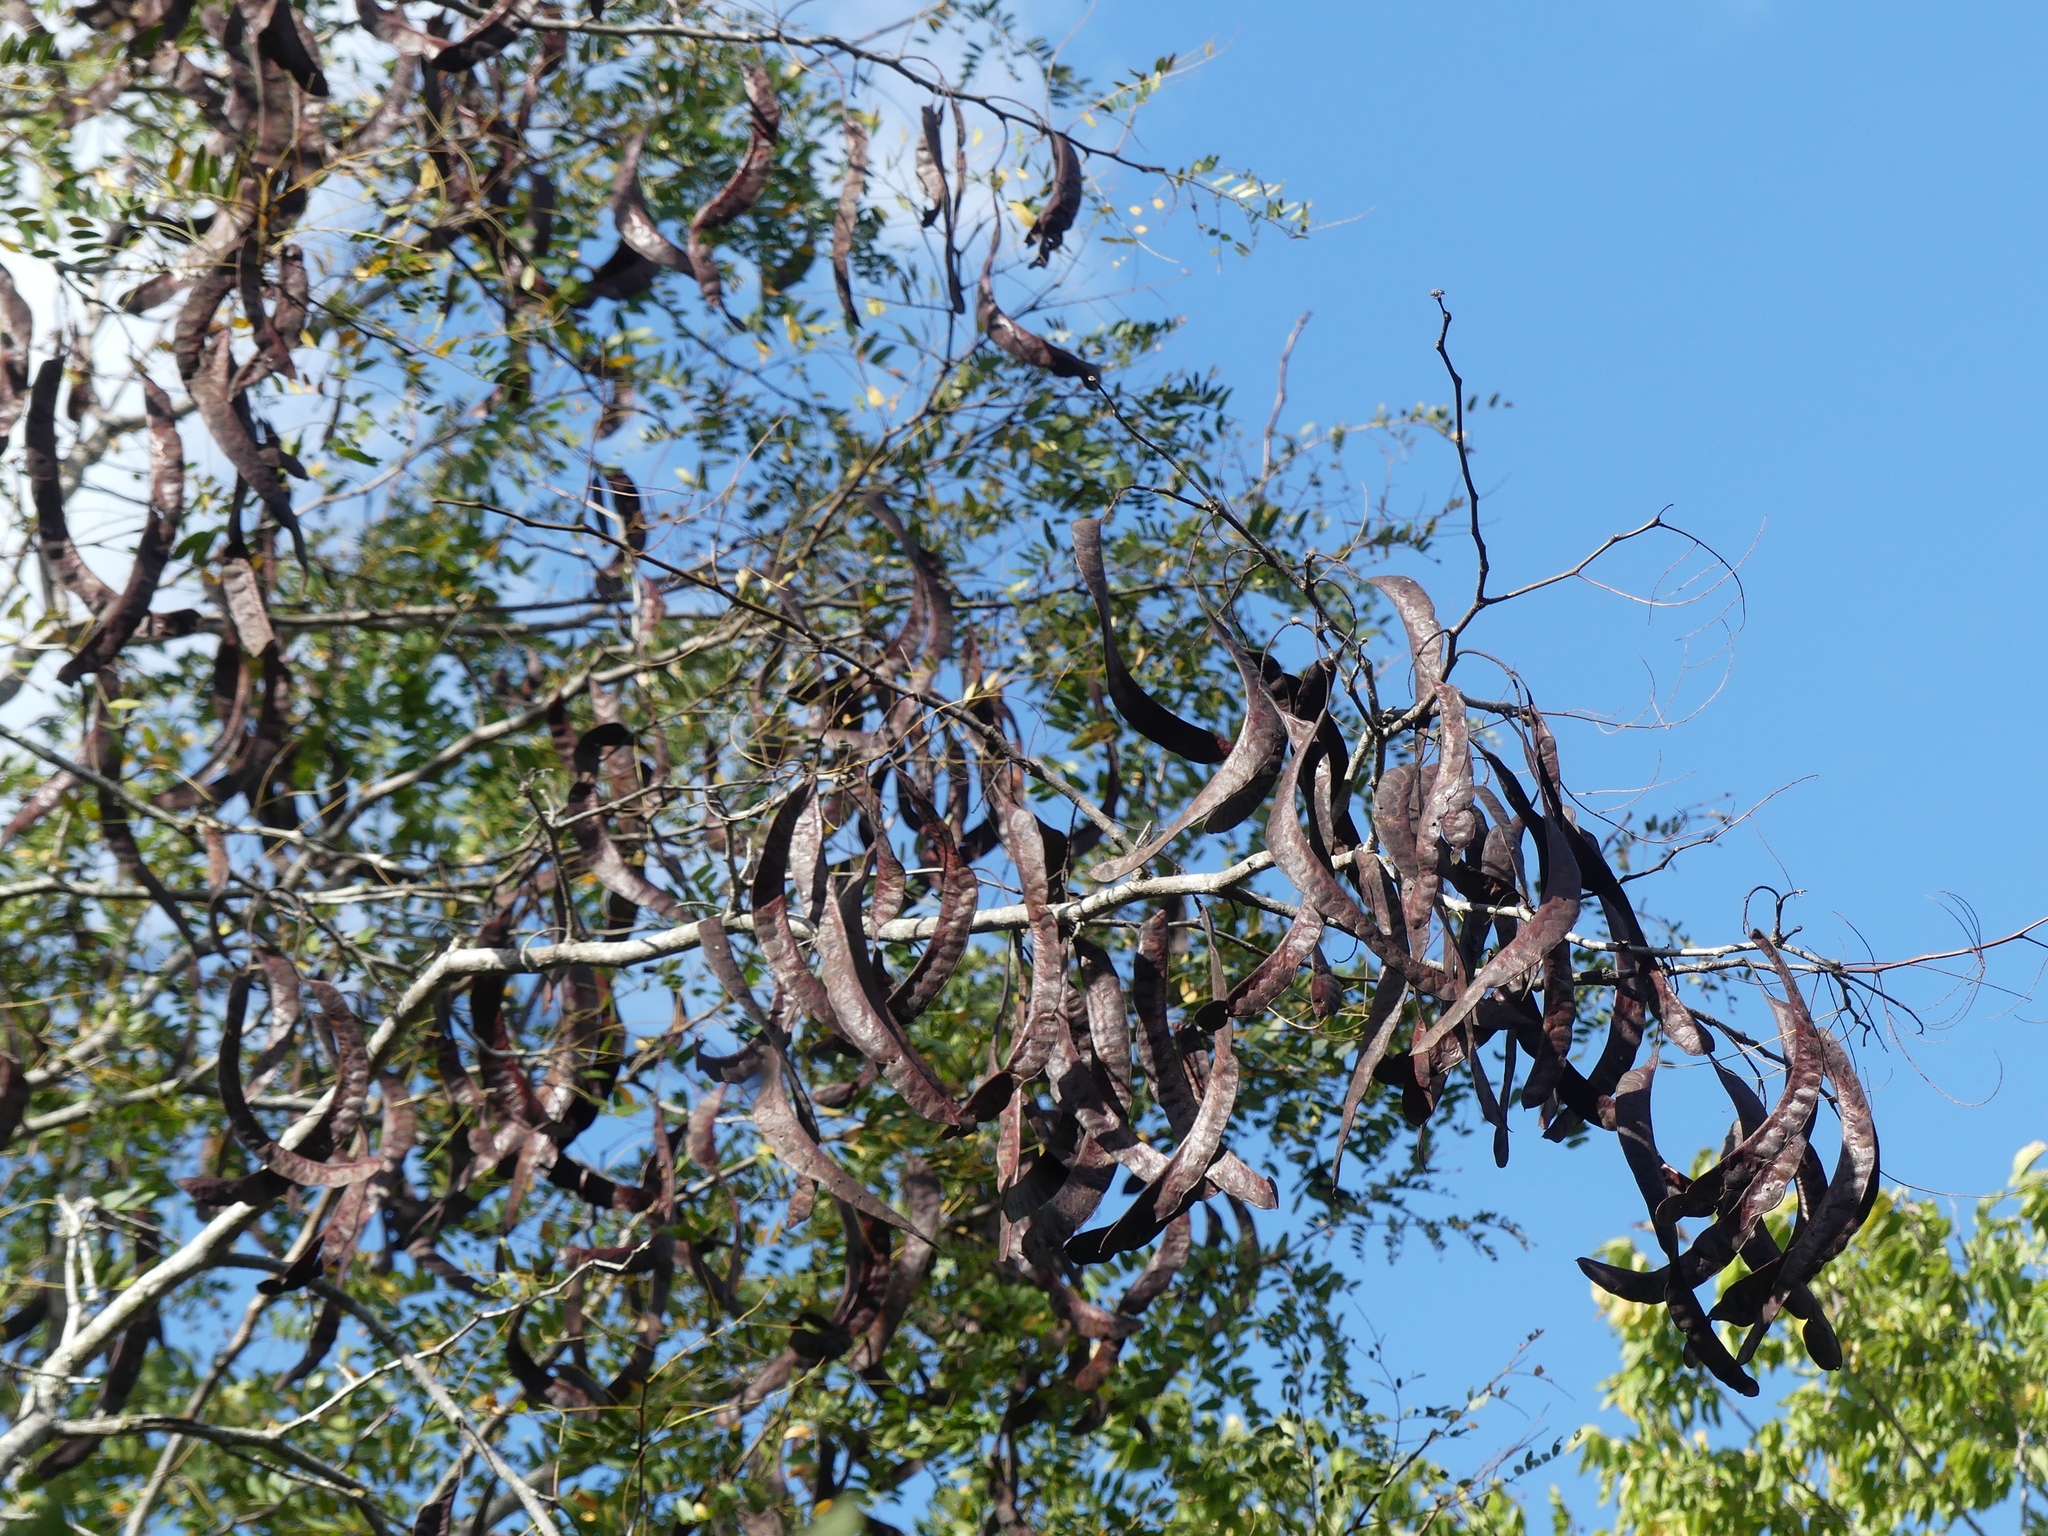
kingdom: Plantae
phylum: Tracheophyta
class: Magnoliopsida
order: Fabales
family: Fabaceae
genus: Gleditsia
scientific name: Gleditsia triacanthos
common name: Common honeylocust
